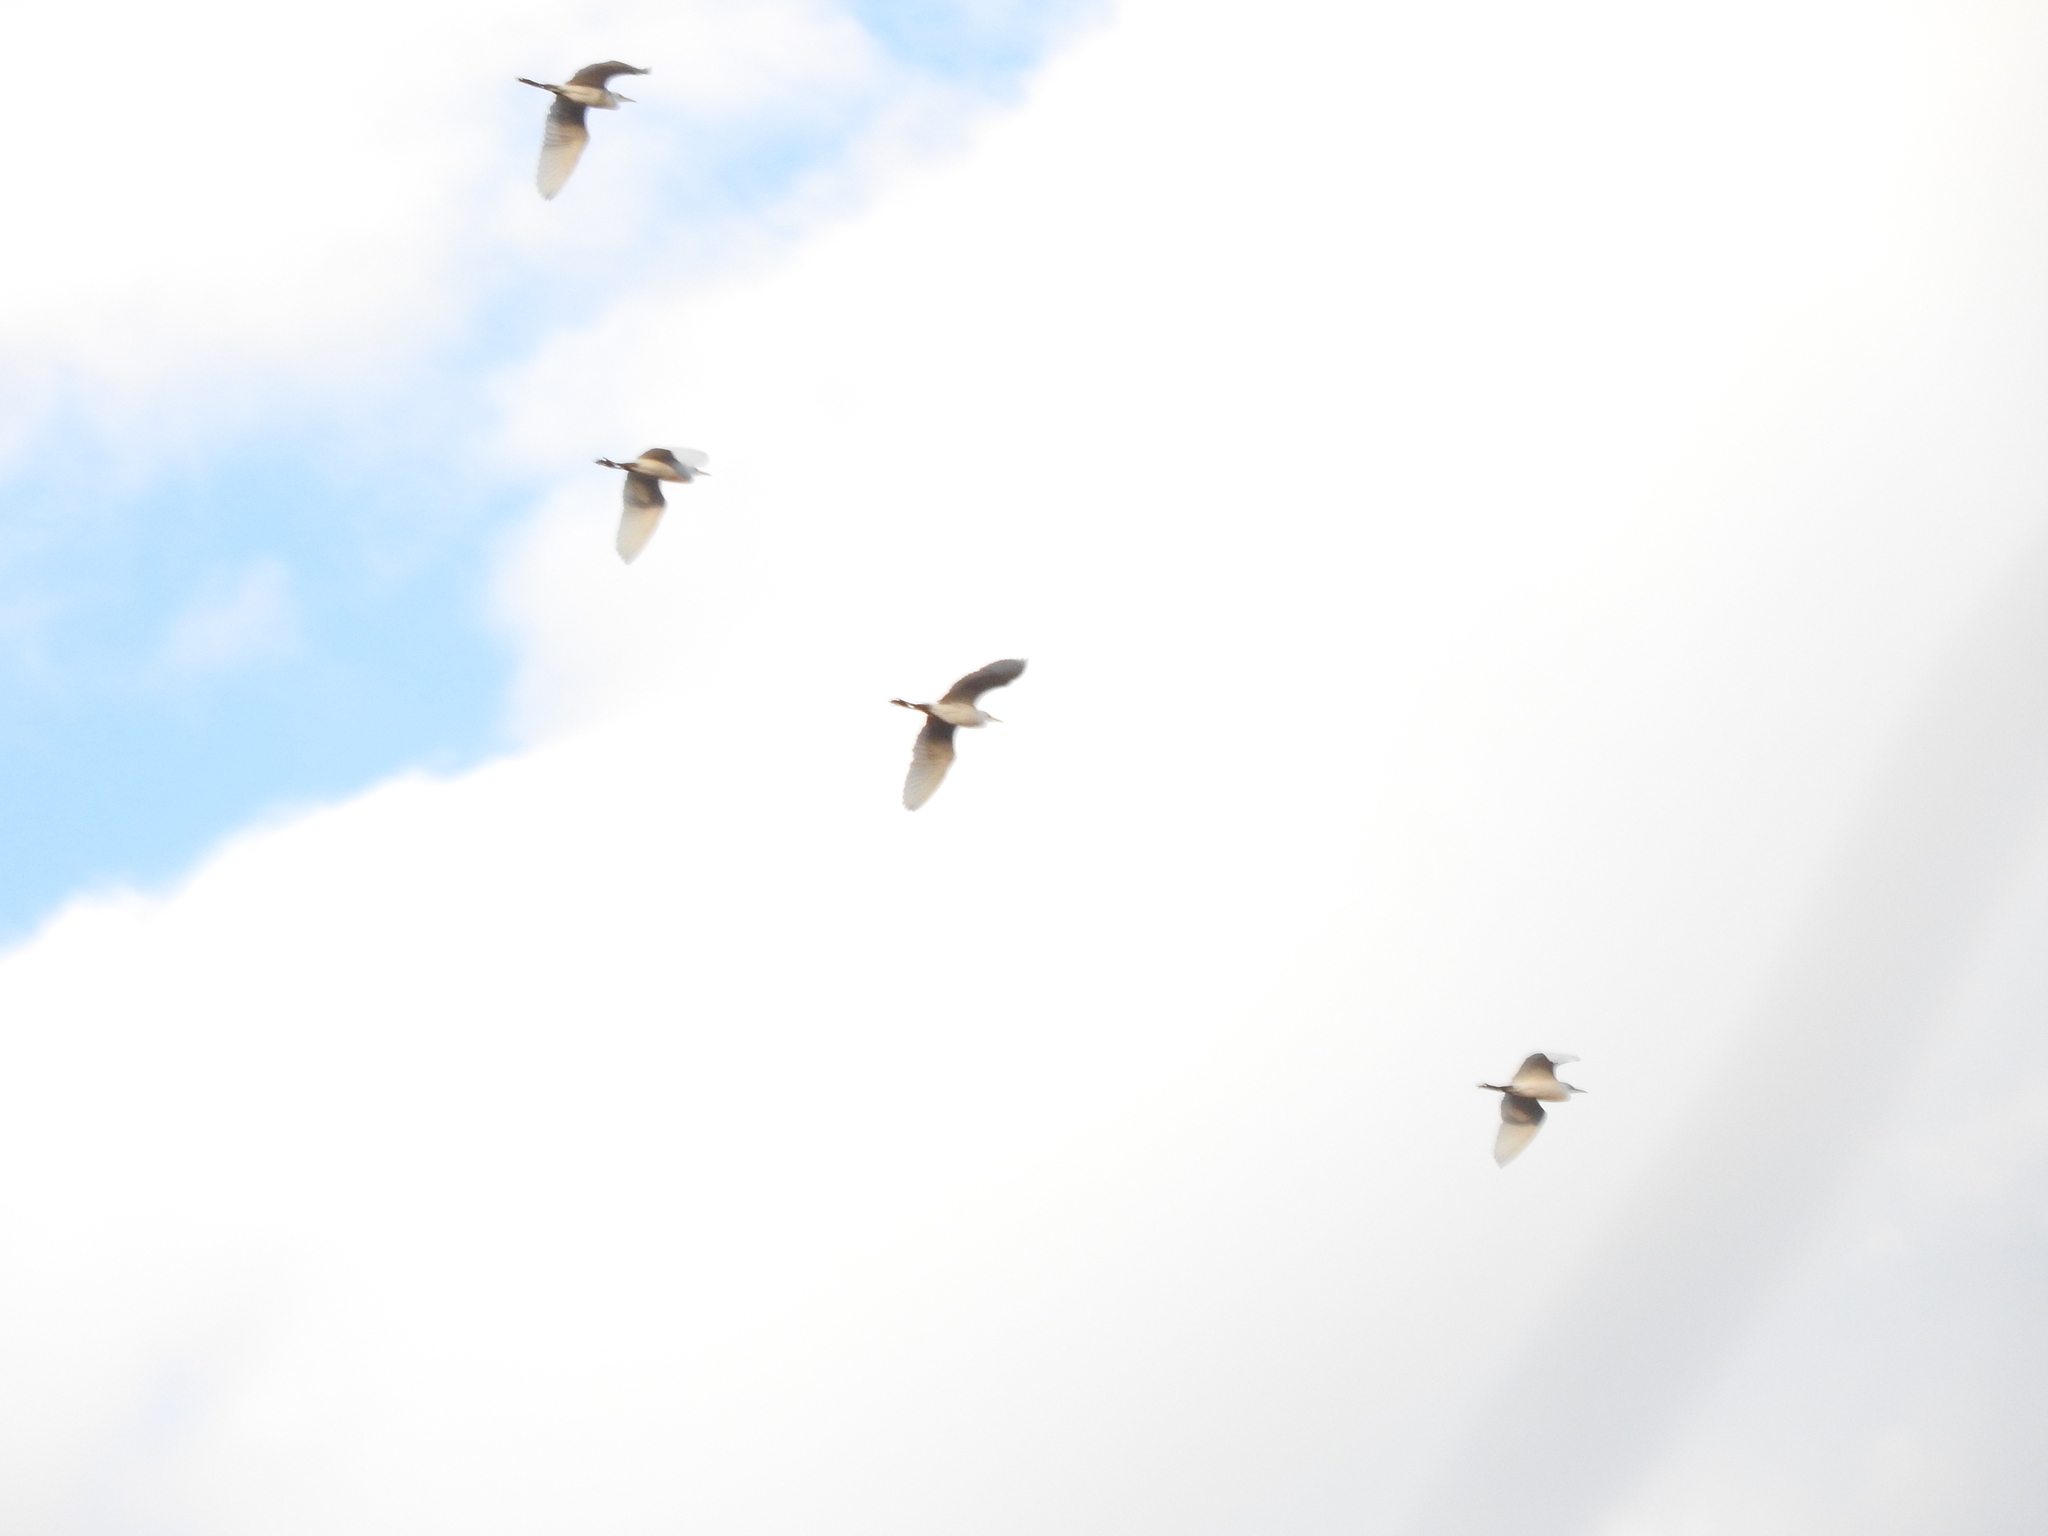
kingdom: Animalia
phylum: Chordata
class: Aves
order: Pelecaniformes
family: Ardeidae
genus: Bubulcus
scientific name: Bubulcus ibis
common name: Cattle egret
